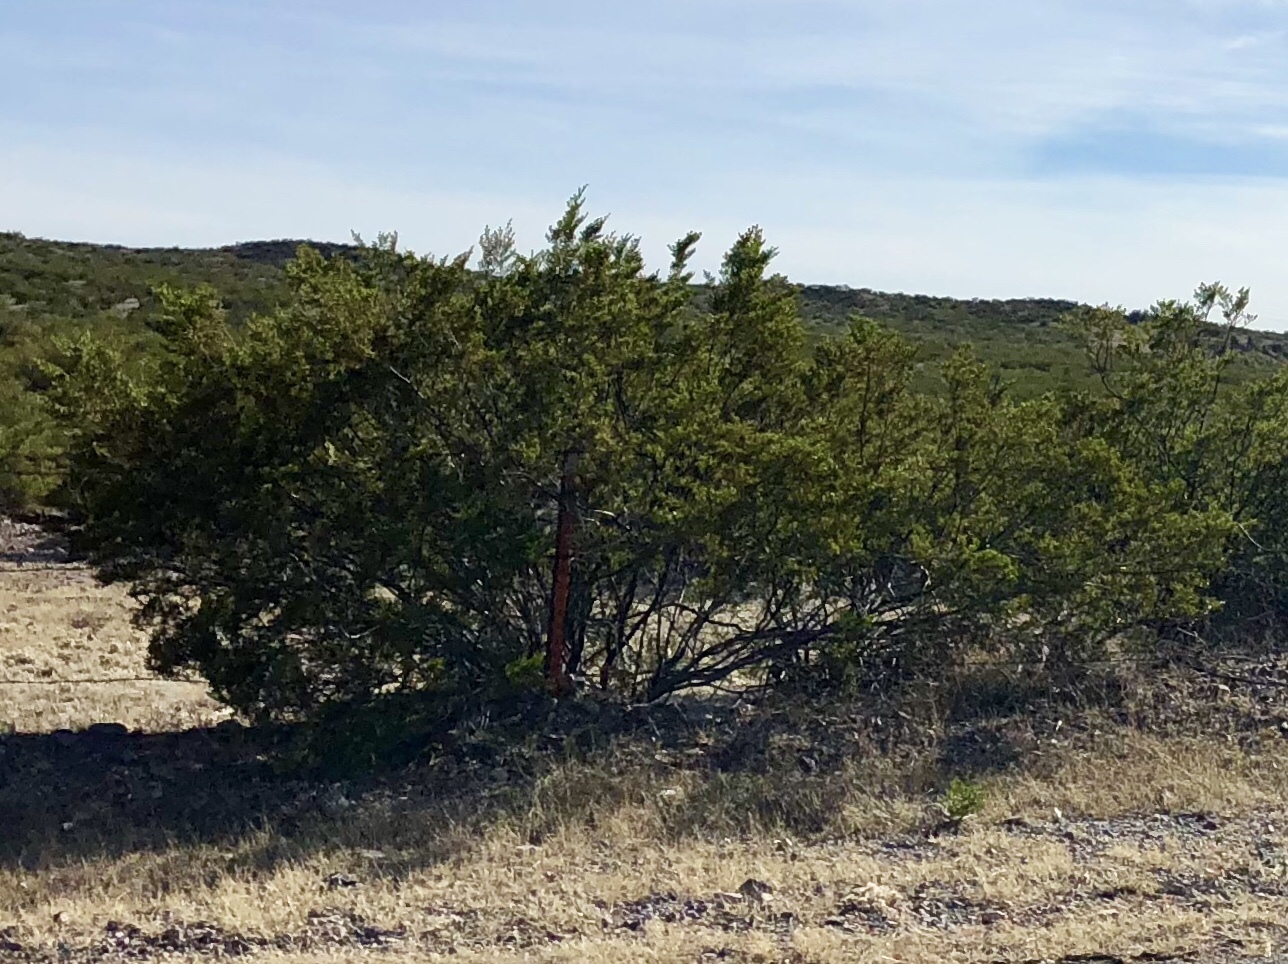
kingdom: Plantae
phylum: Tracheophyta
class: Magnoliopsida
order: Zygophyllales
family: Zygophyllaceae
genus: Larrea
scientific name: Larrea tridentata
